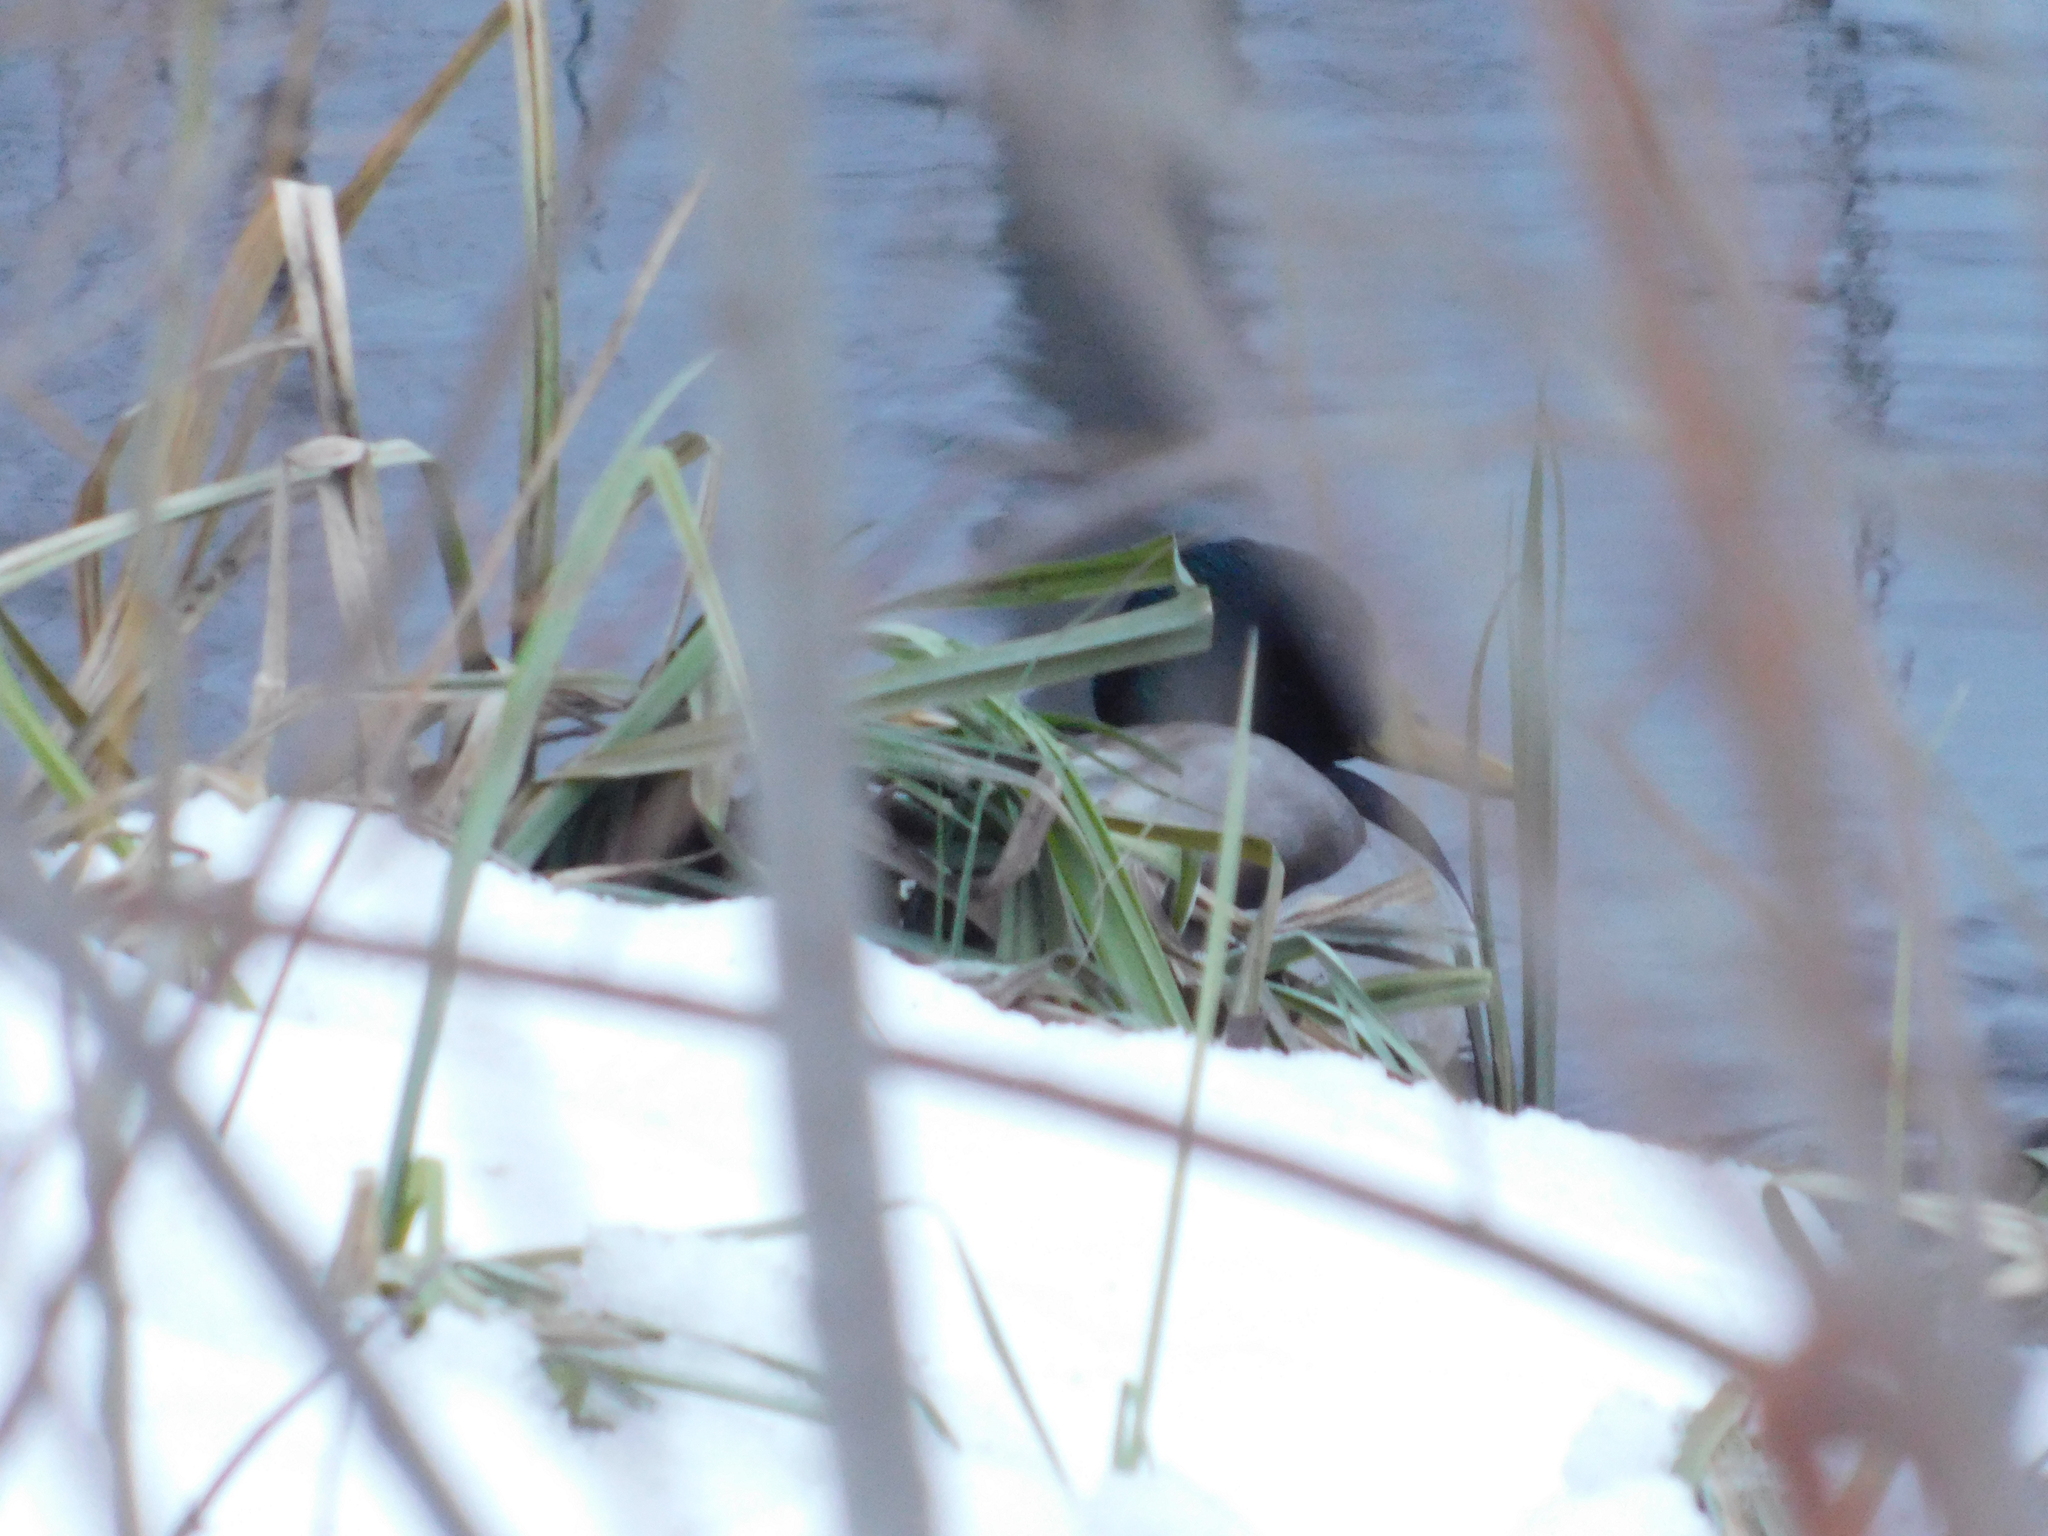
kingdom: Animalia
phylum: Chordata
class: Aves
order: Anseriformes
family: Anatidae
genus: Anas
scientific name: Anas platyrhynchos
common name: Mallard
